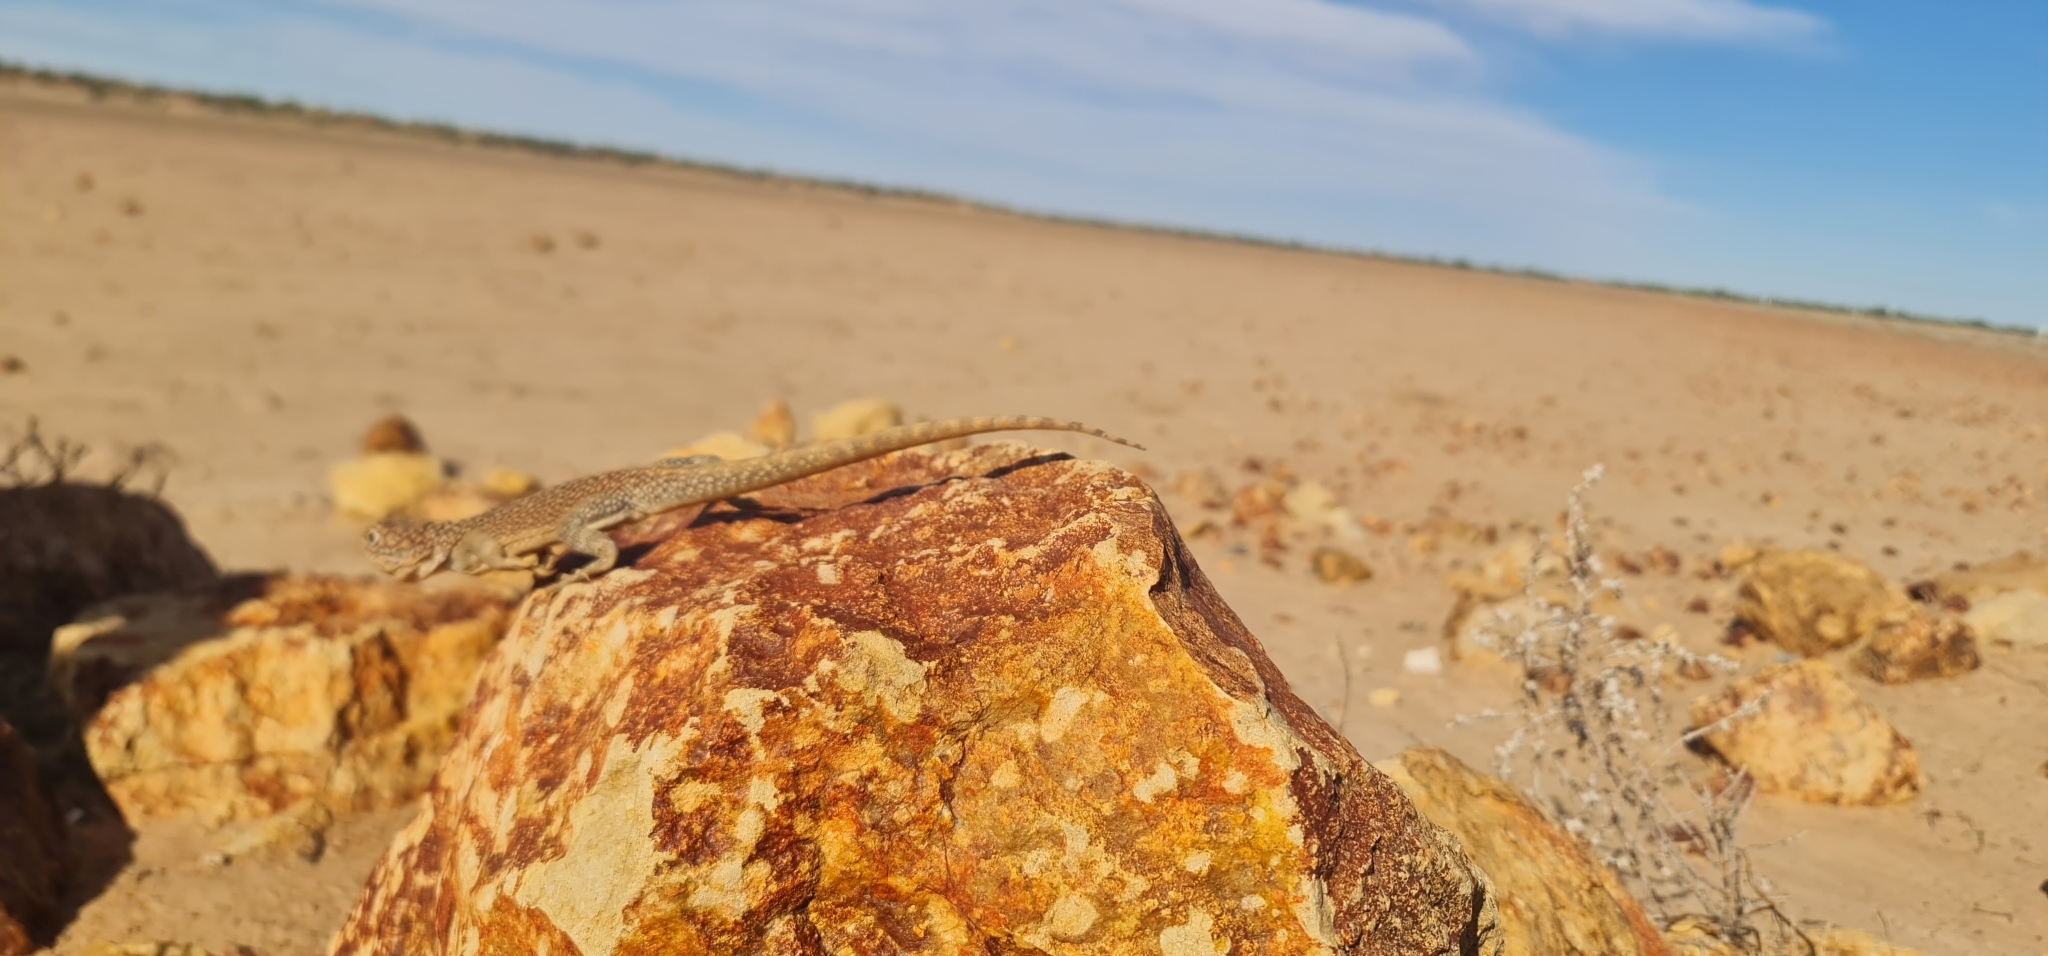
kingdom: Animalia
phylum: Chordata
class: Squamata
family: Agamidae
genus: Ctenophorus
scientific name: Ctenophorus nuchalis
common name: Central netted dragon
